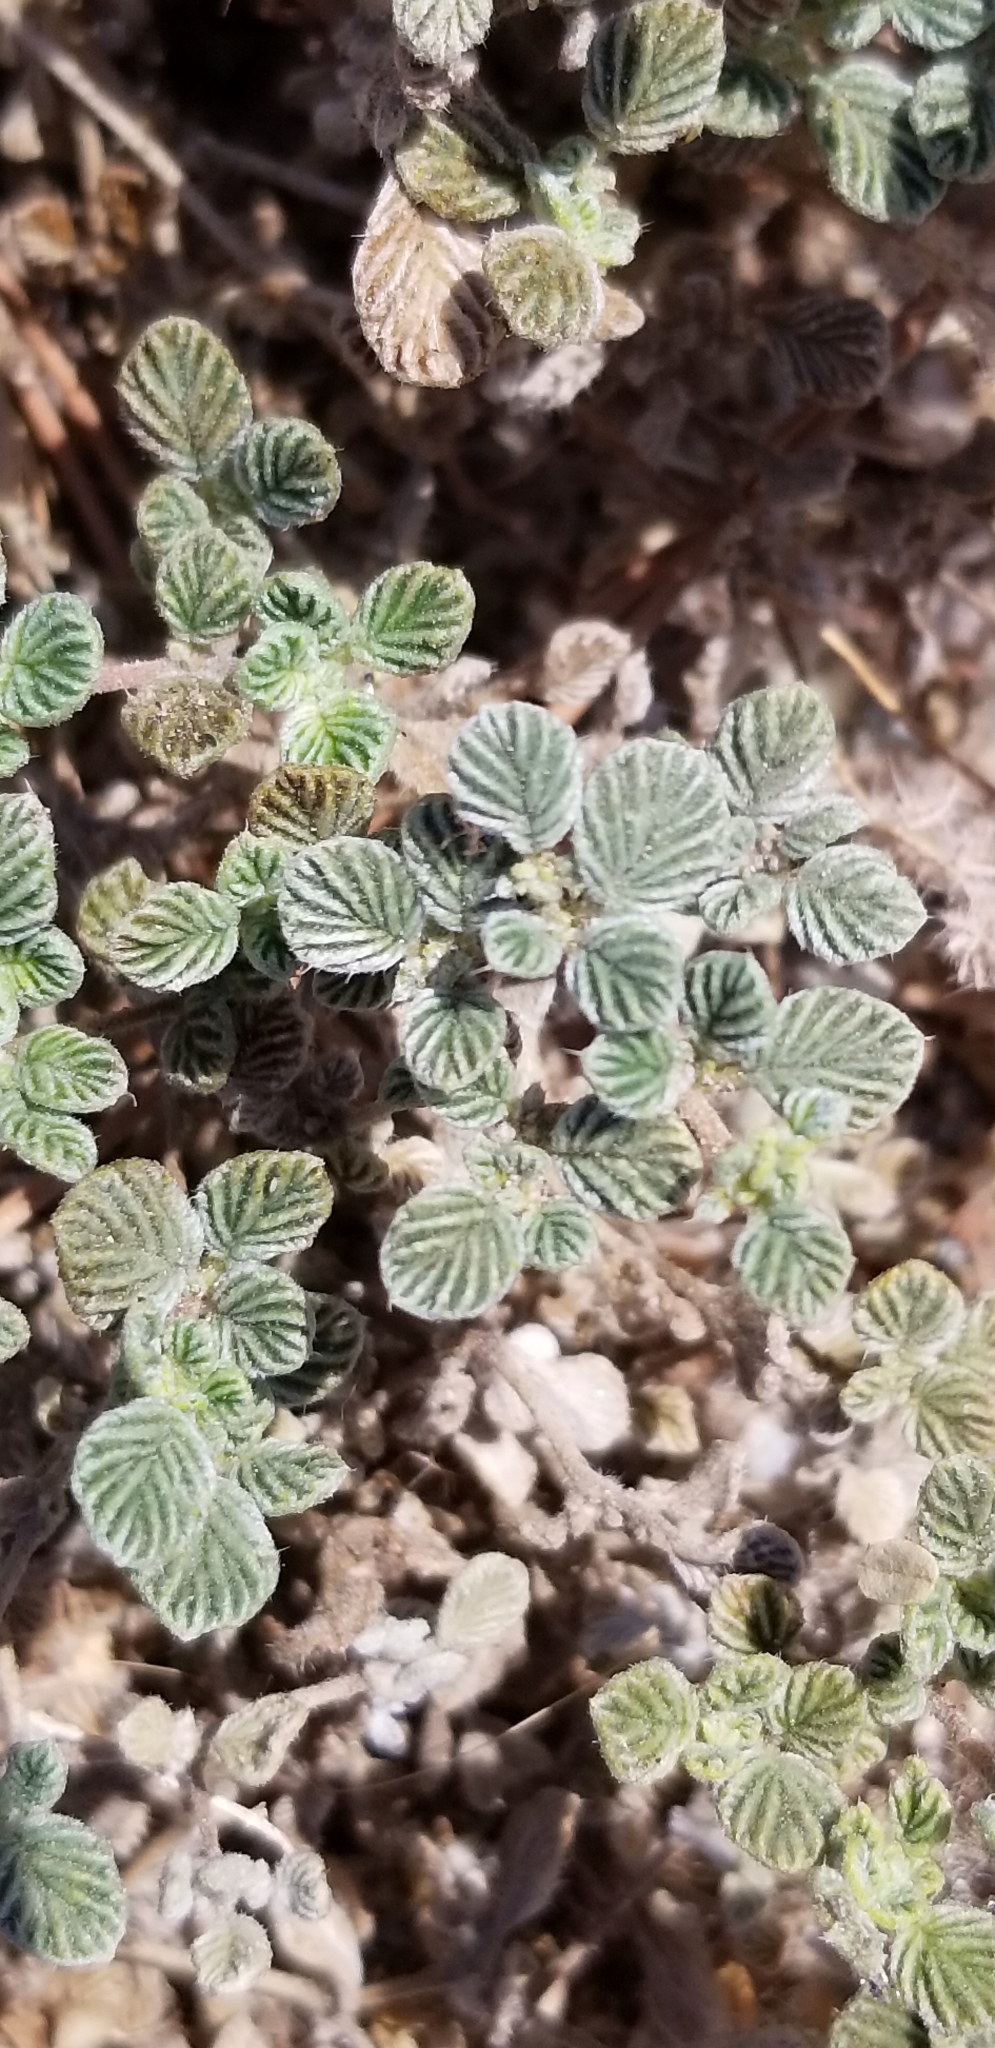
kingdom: Plantae
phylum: Tracheophyta
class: Magnoliopsida
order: Boraginales
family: Ehretiaceae
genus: Tiquilia
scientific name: Tiquilia plicata
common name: Fan-leaf tiquilia
